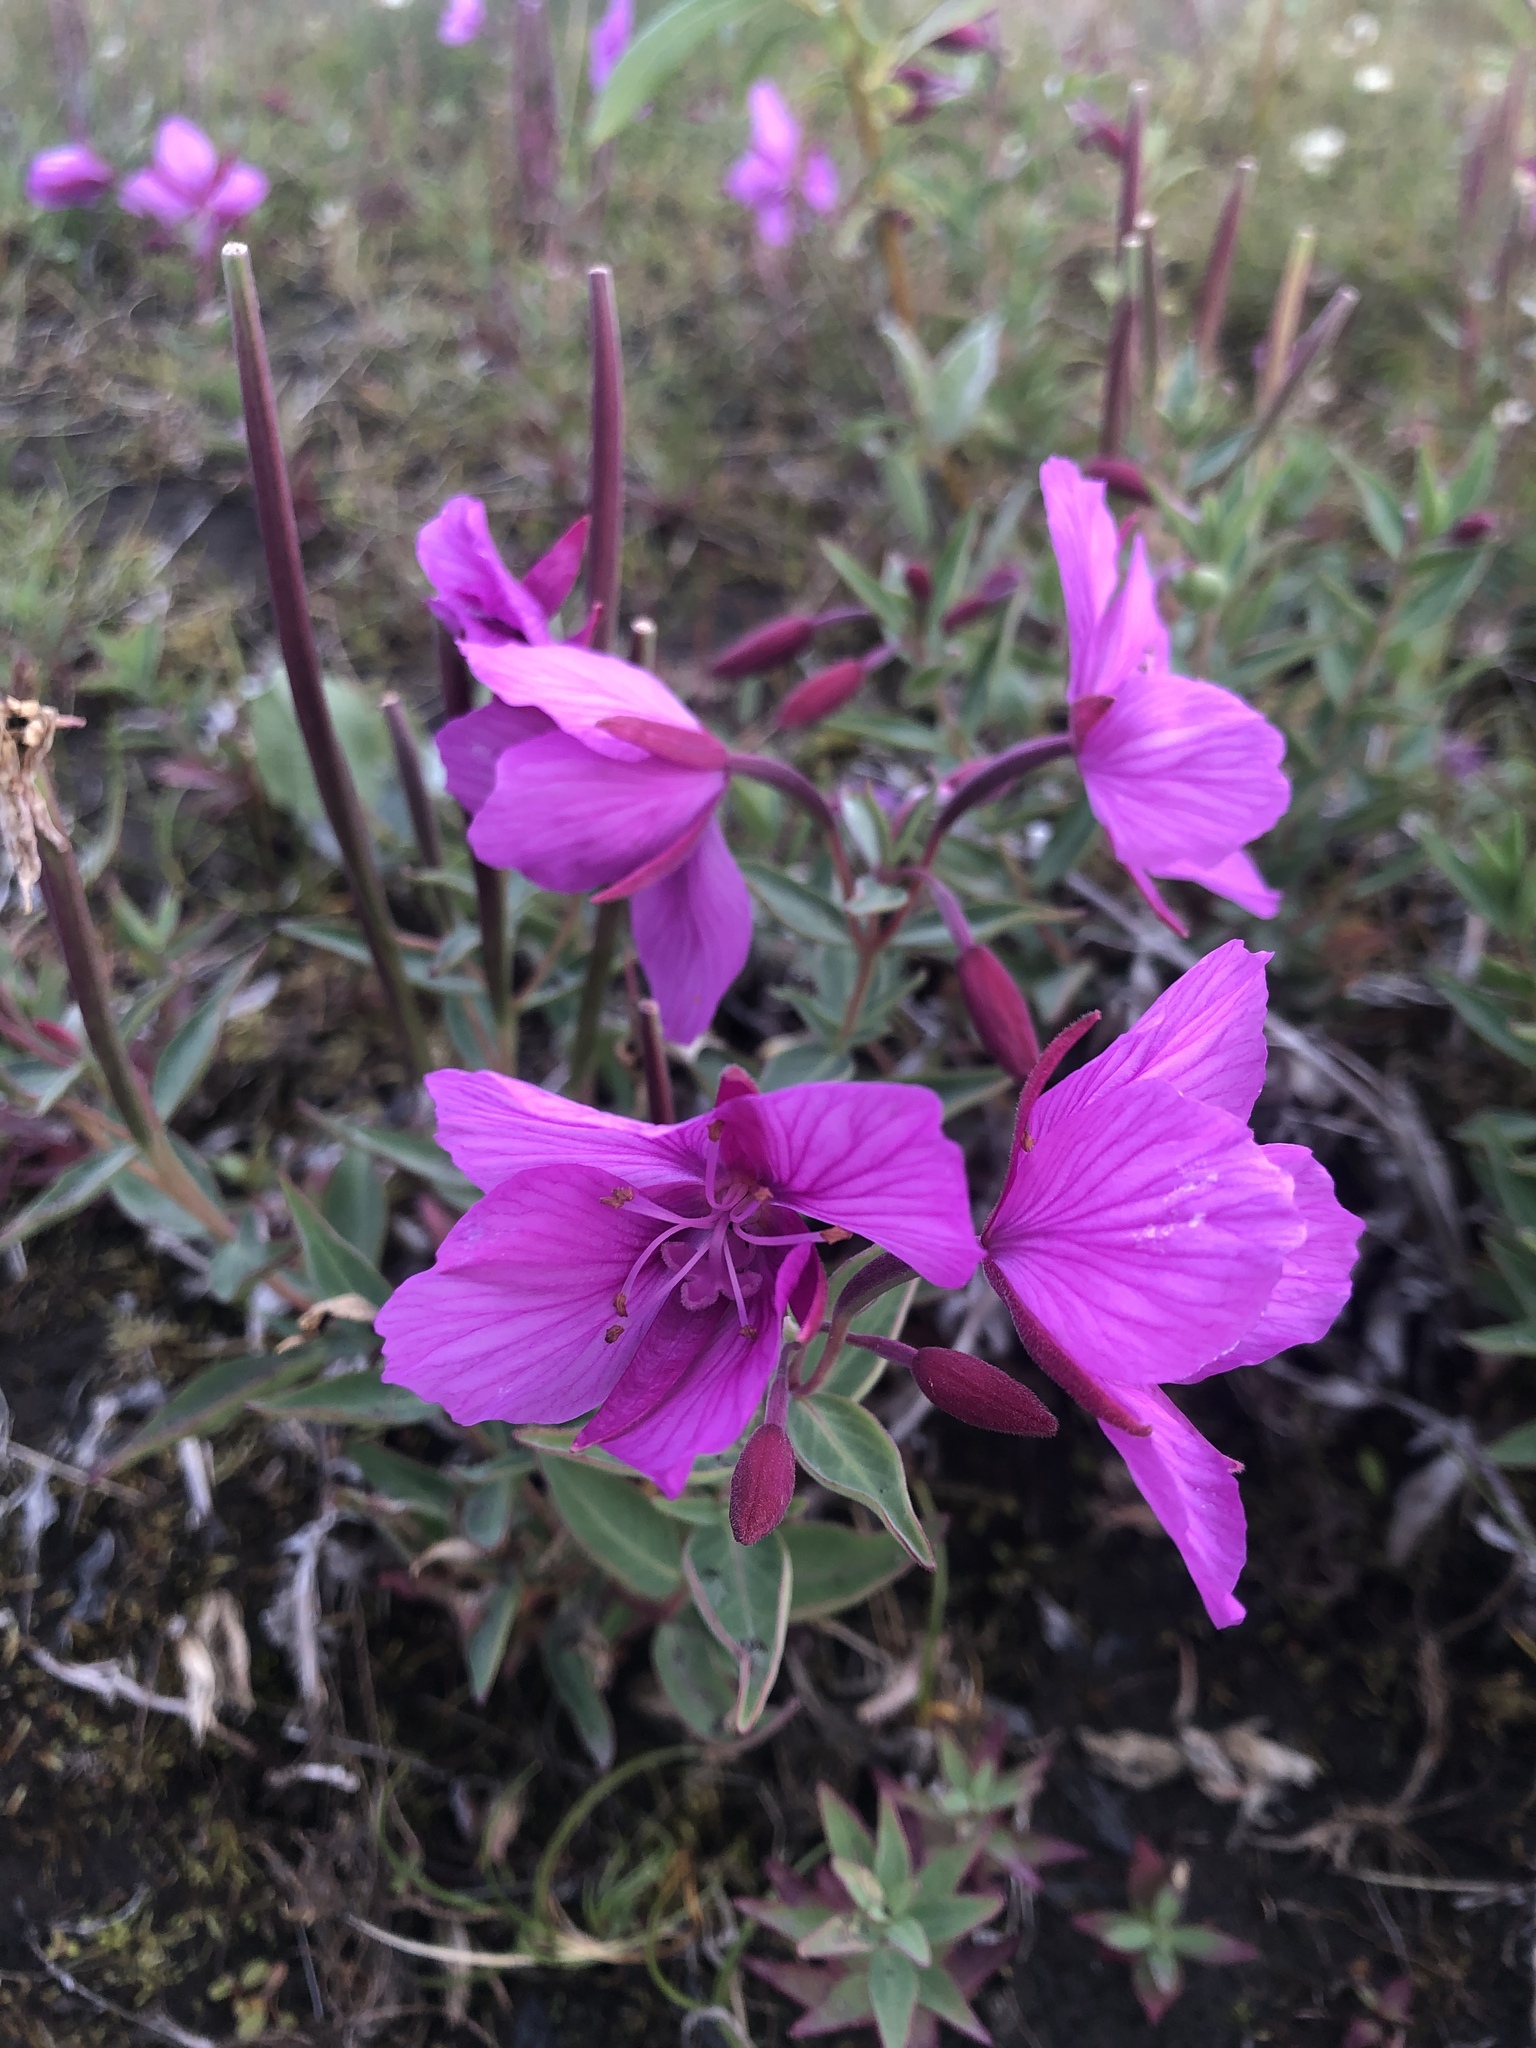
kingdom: Plantae
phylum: Tracheophyta
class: Magnoliopsida
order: Myrtales
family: Onagraceae
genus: Chamaenerion
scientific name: Chamaenerion latifolium
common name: Dwarf fireweed
